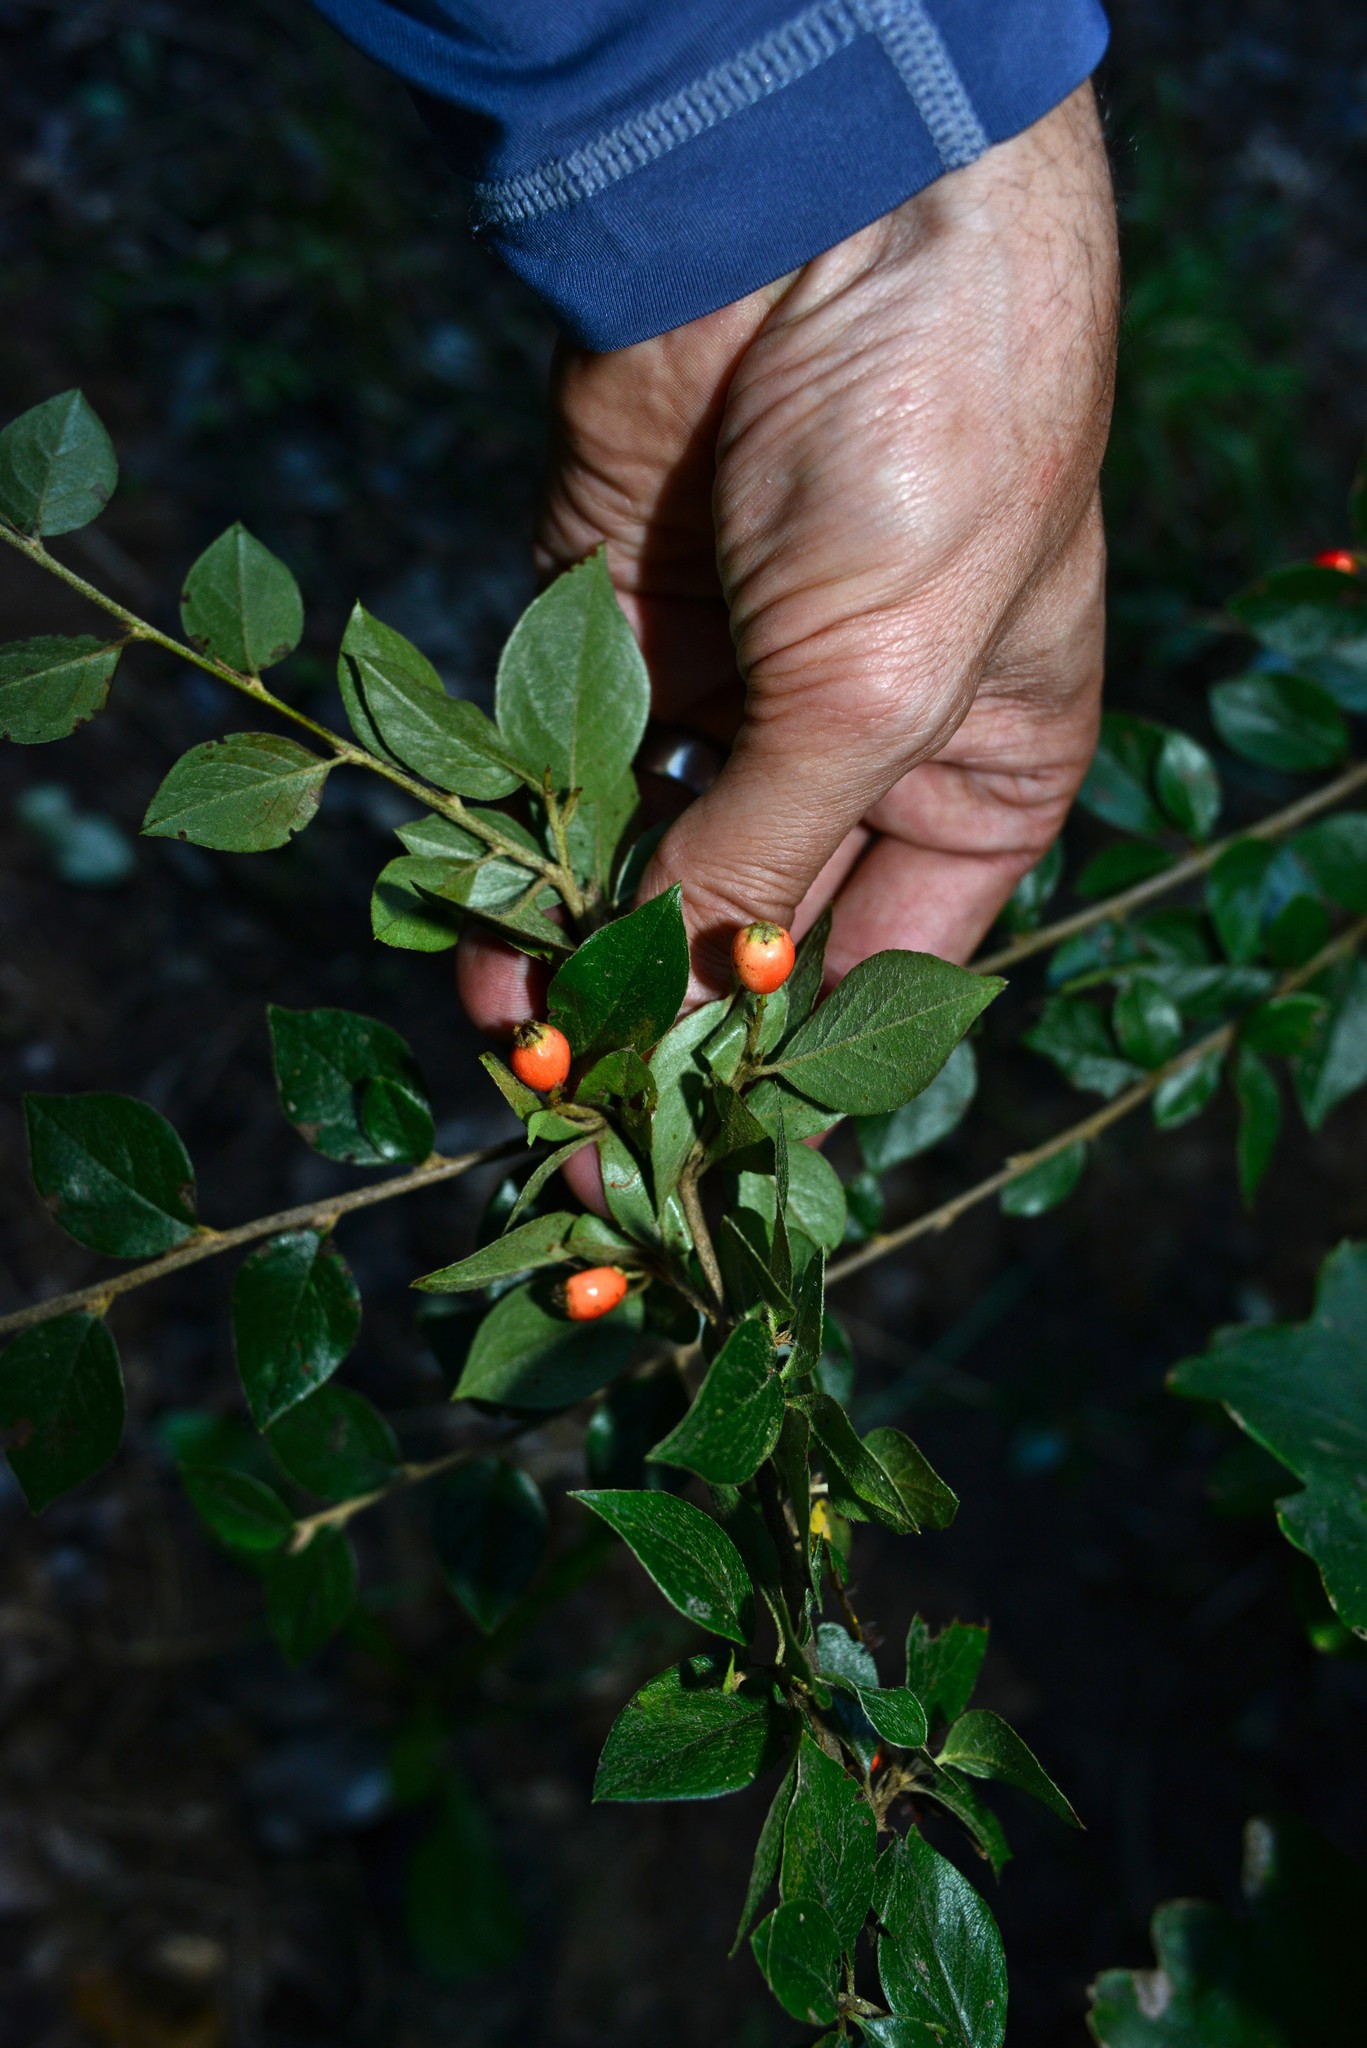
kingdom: Plantae
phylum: Tracheophyta
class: Magnoliopsida
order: Rosales
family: Rosaceae
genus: Cotoneaster
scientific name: Cotoneaster simonsii
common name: Himalayan cotoneaster
